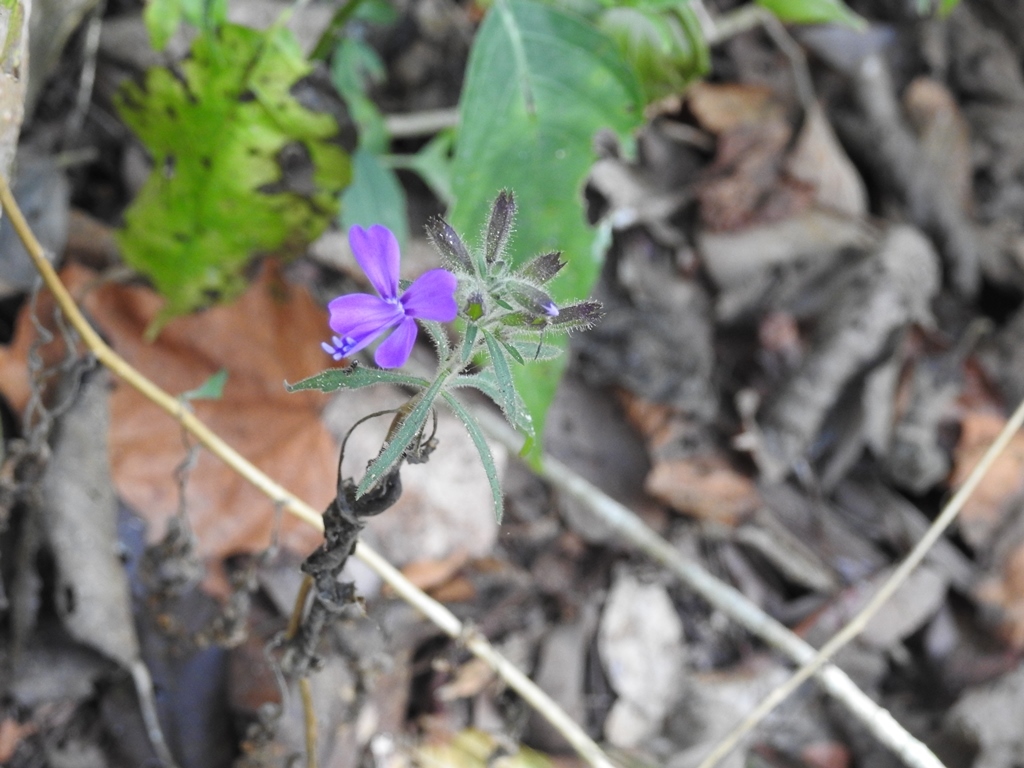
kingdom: Plantae
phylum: Tracheophyta
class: Magnoliopsida
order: Ericales
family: Polemoniaceae
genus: Bonplandia
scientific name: Bonplandia geminiflora
